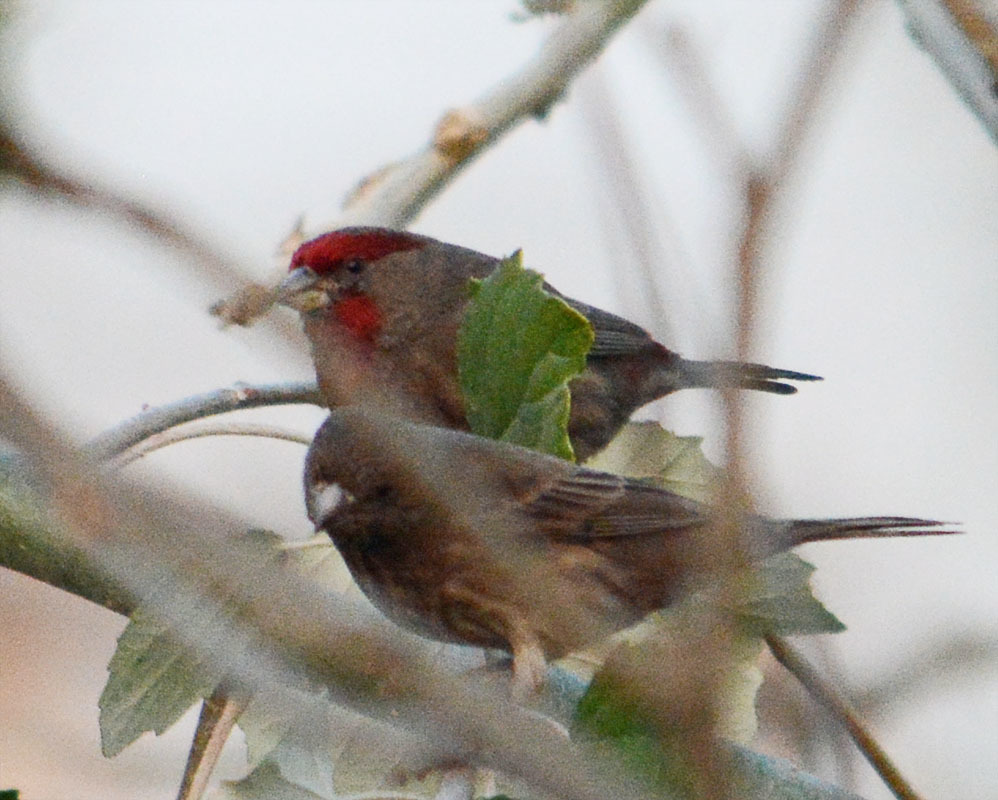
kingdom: Animalia
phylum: Chordata
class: Aves
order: Passeriformes
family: Fringillidae
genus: Haemorhous
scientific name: Haemorhous mexicanus
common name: House finch
